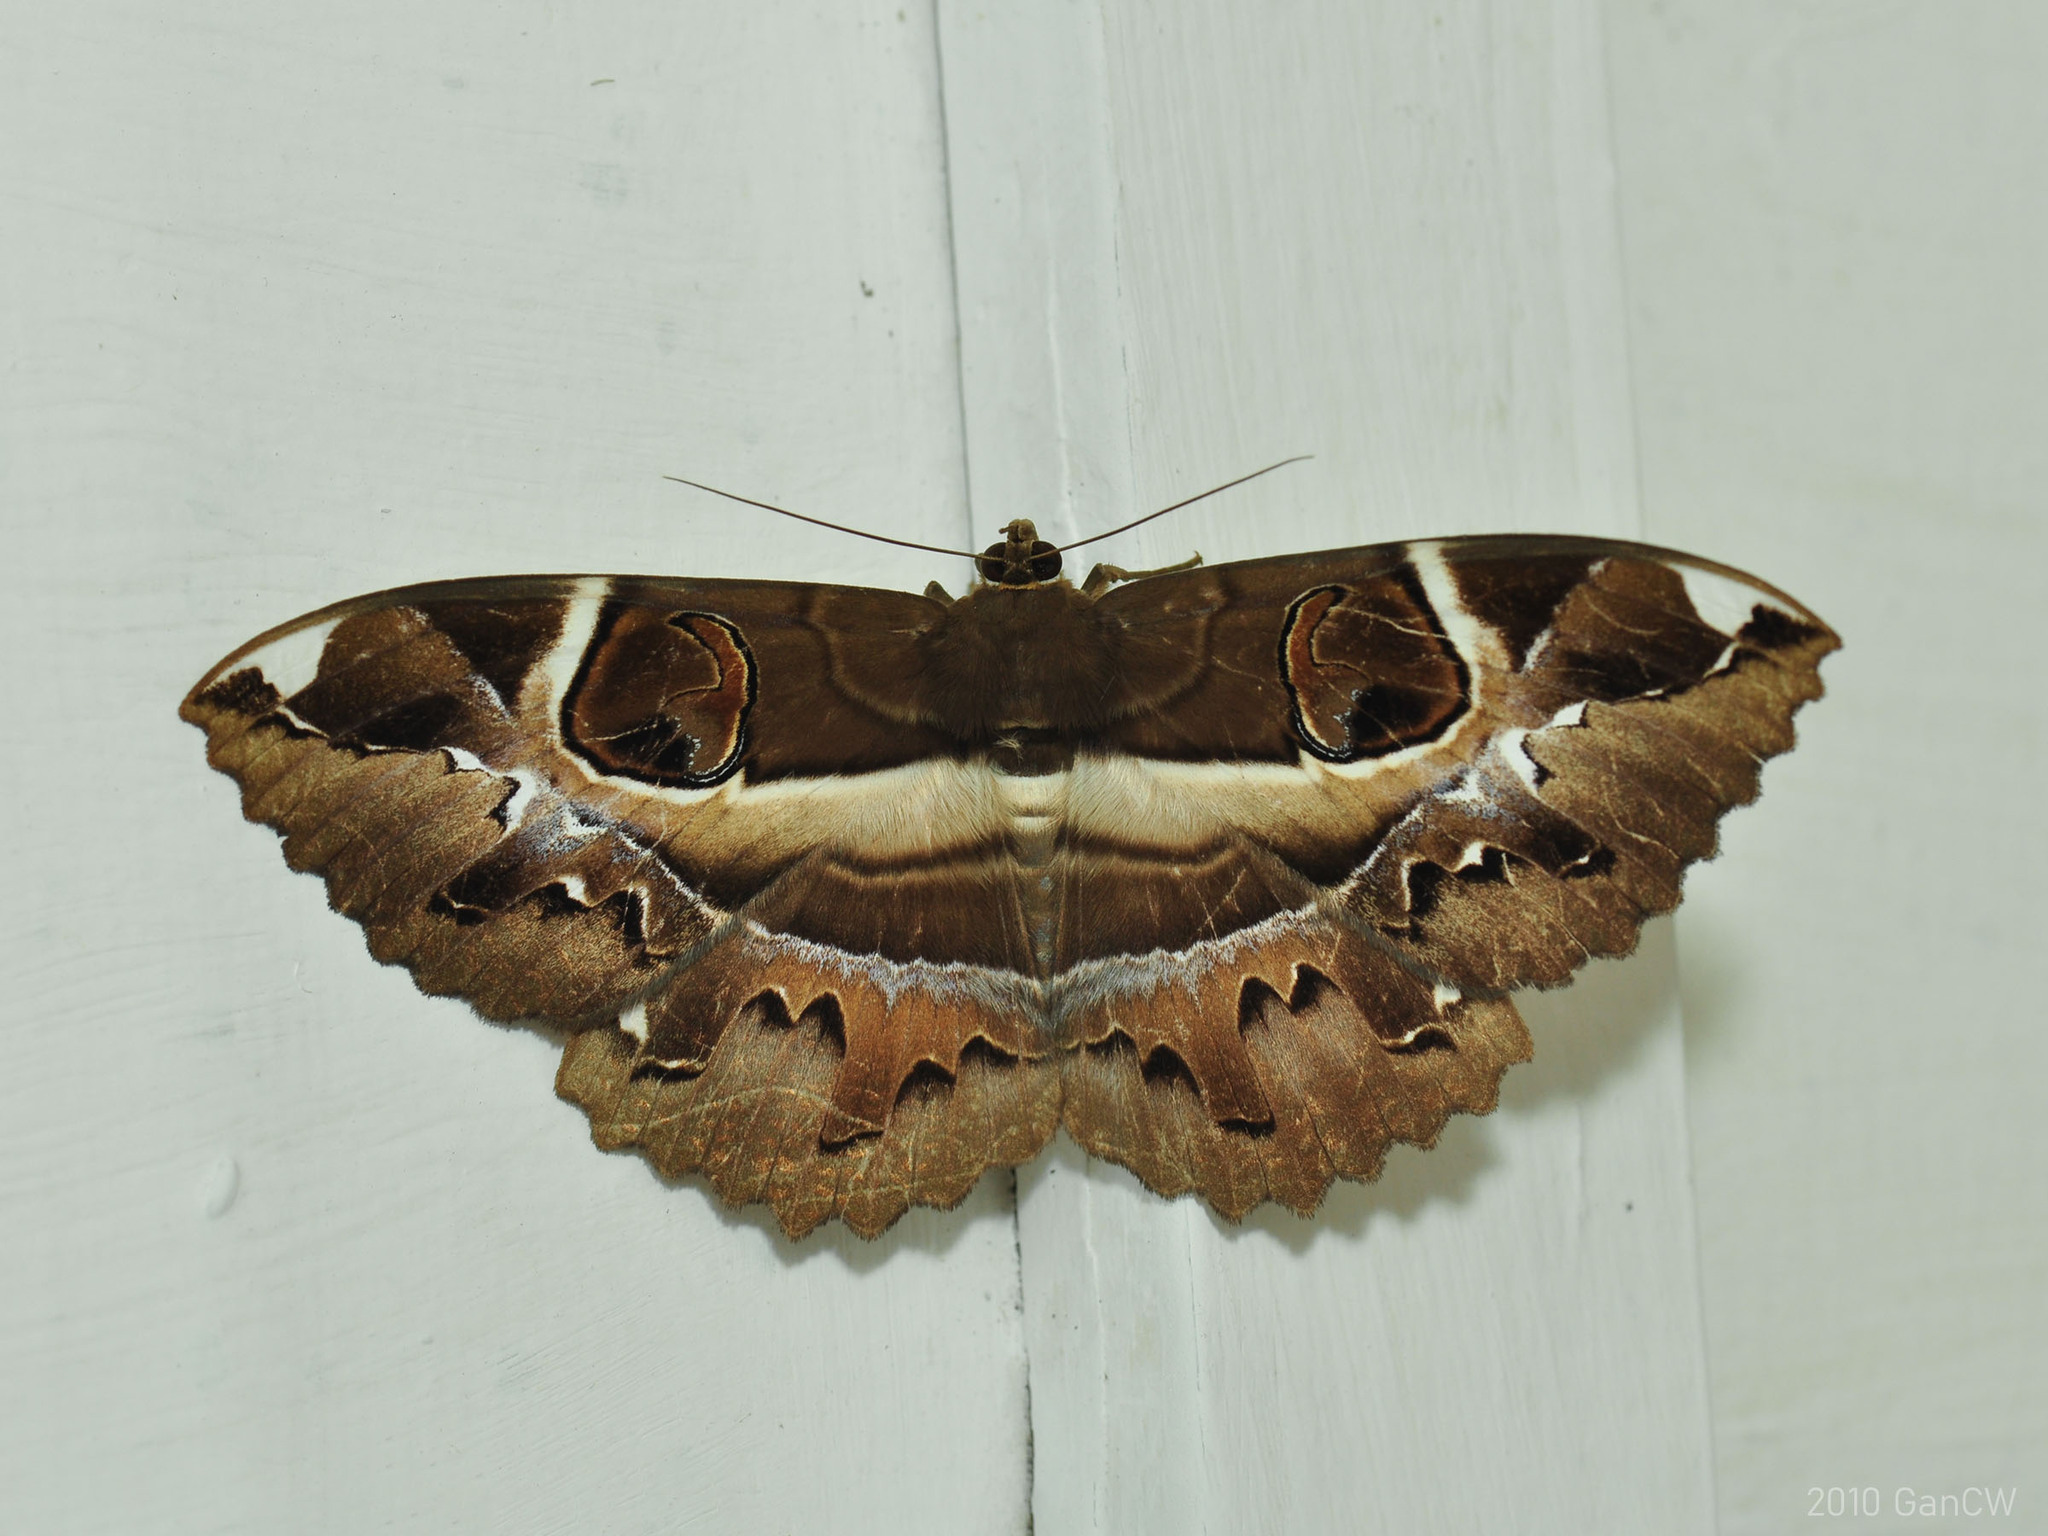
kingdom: Animalia
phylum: Arthropoda
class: Insecta
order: Lepidoptera
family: Erebidae
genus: Erebus
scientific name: Erebus ephesperis
